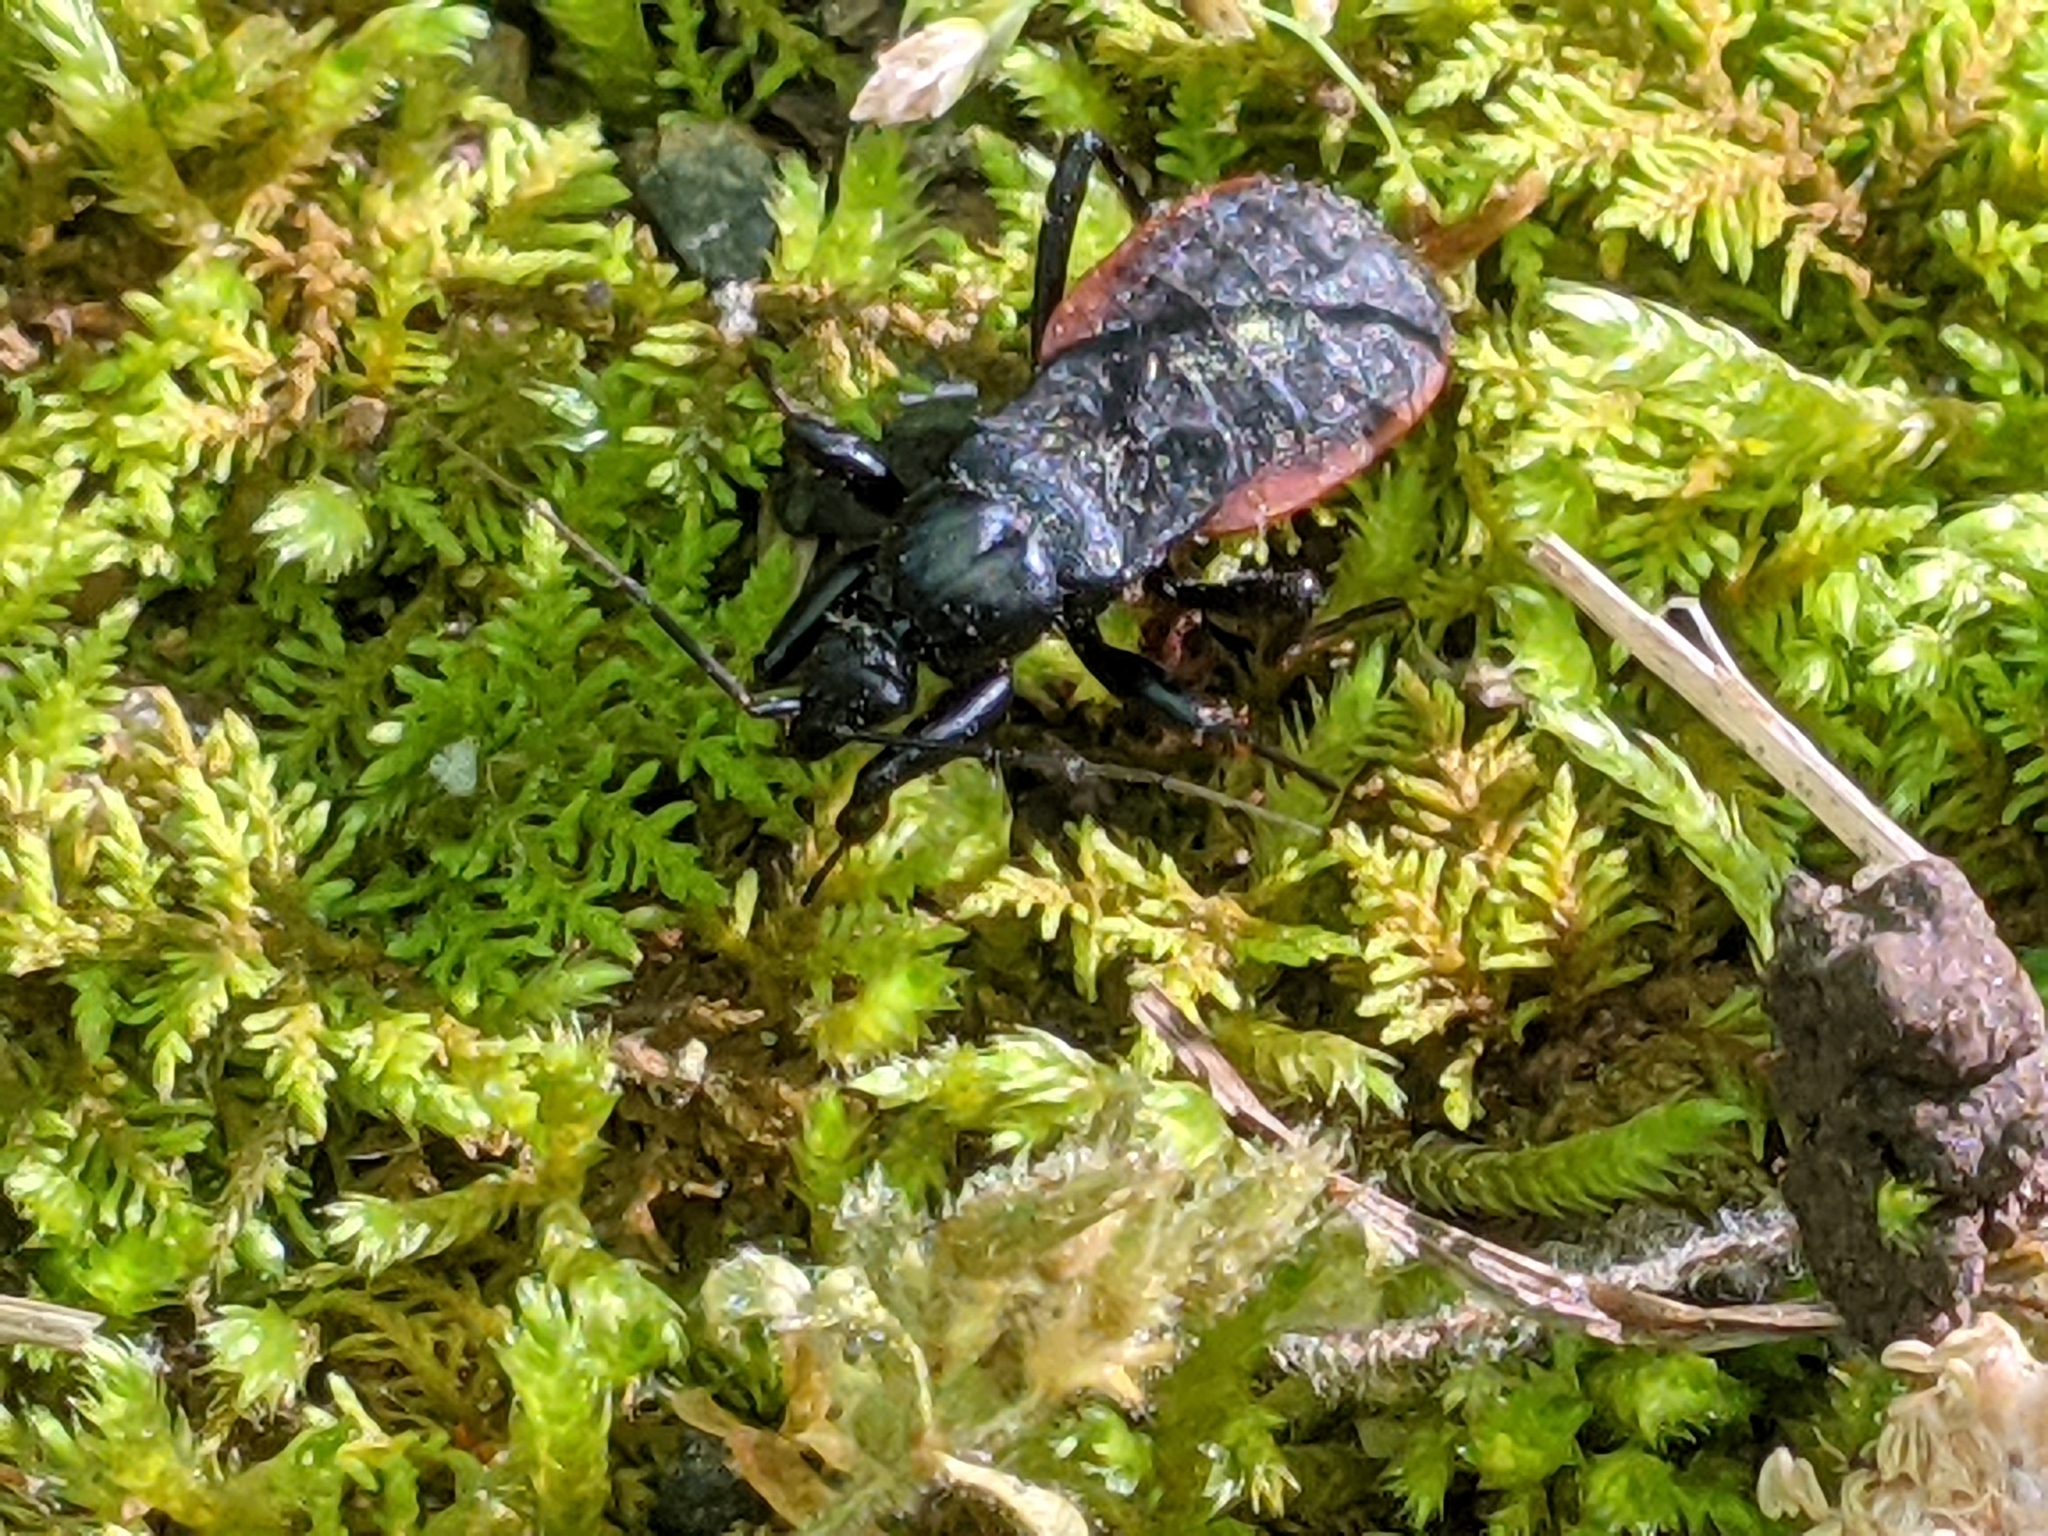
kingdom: Animalia
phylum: Arthropoda
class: Insecta
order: Hemiptera
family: Reduviidae
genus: Melanolestes
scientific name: Melanolestes picipes
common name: Assassin bug
